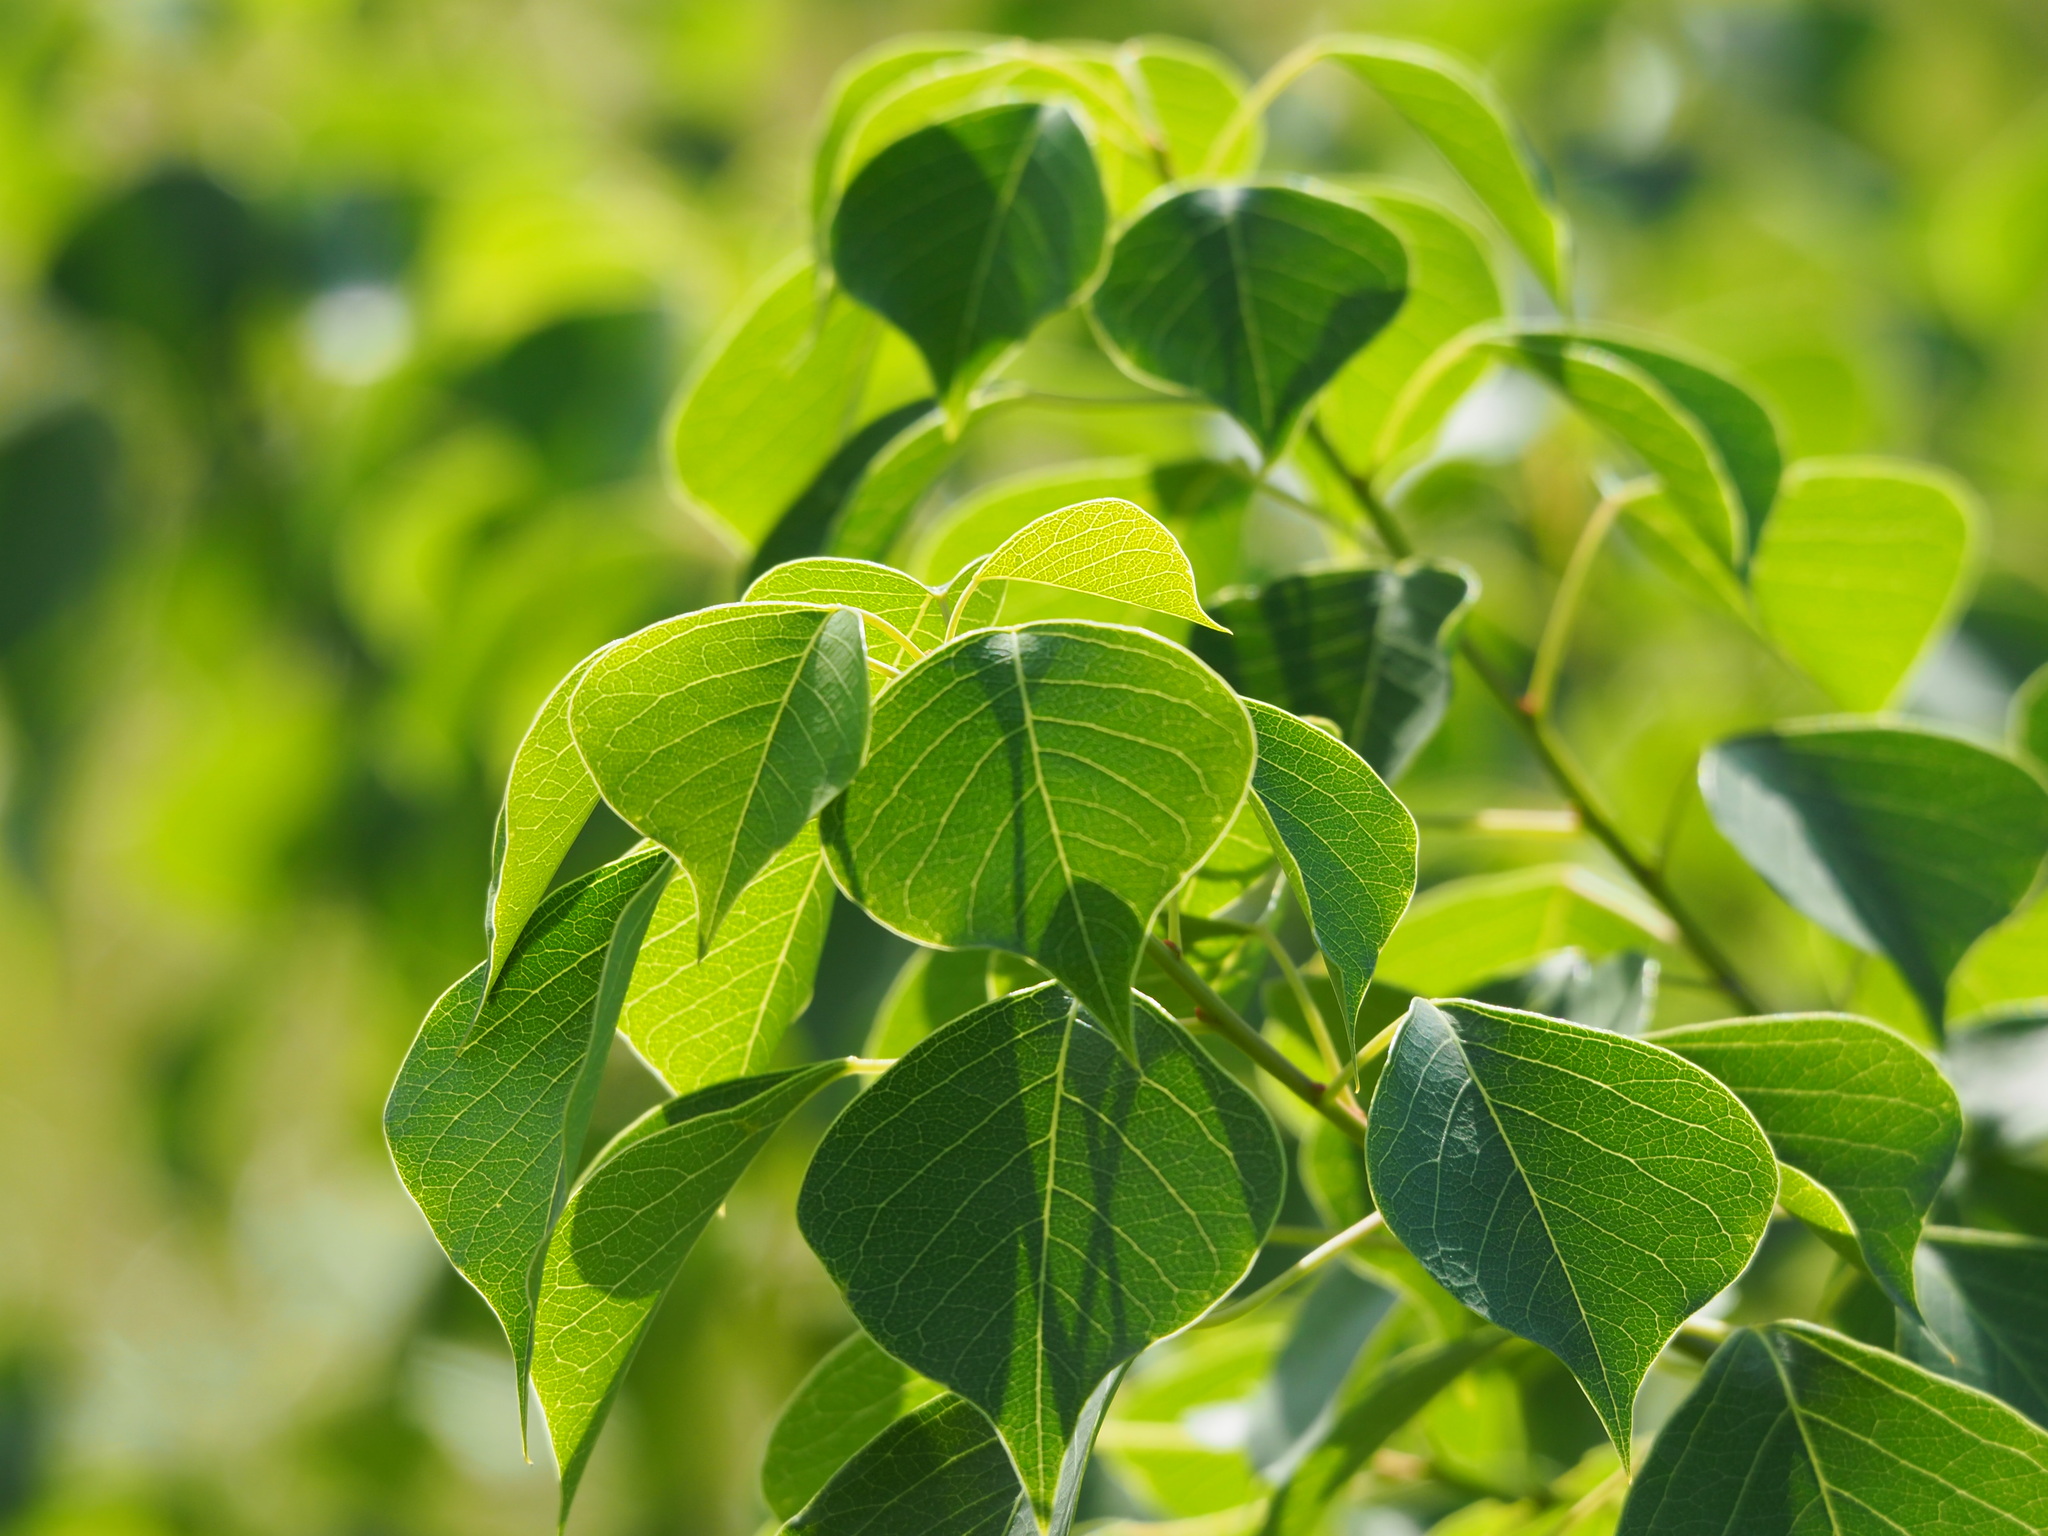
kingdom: Plantae
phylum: Tracheophyta
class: Magnoliopsida
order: Malpighiales
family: Euphorbiaceae
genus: Triadica
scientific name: Triadica sebifera
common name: Chinese tallow
